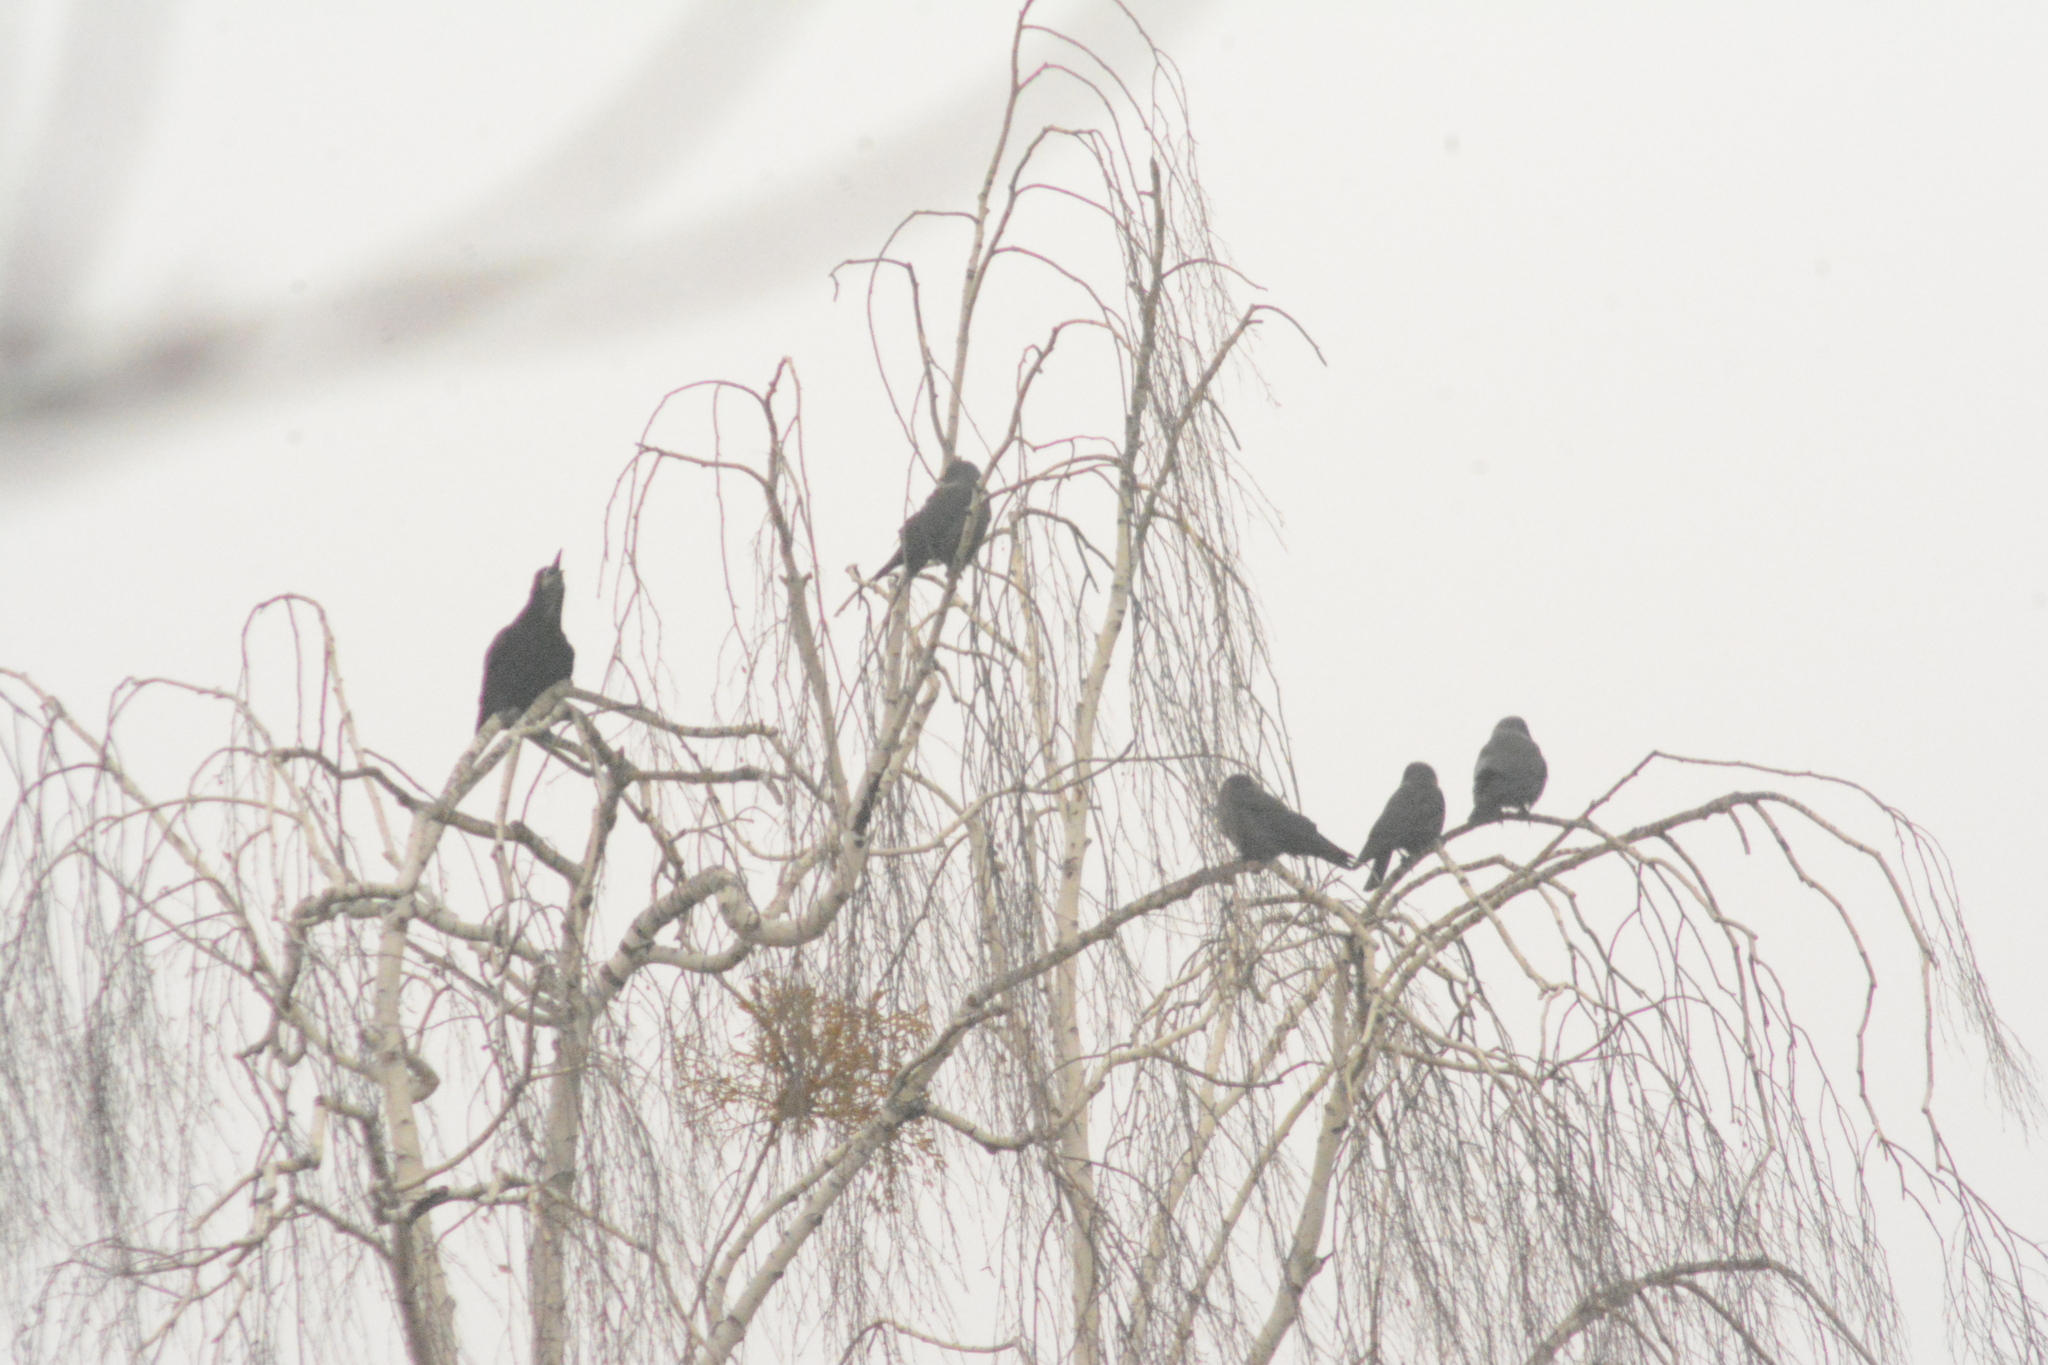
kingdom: Animalia
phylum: Chordata
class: Aves
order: Passeriformes
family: Corvidae
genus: Corvus
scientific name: Corvus frugilegus
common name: Rook
